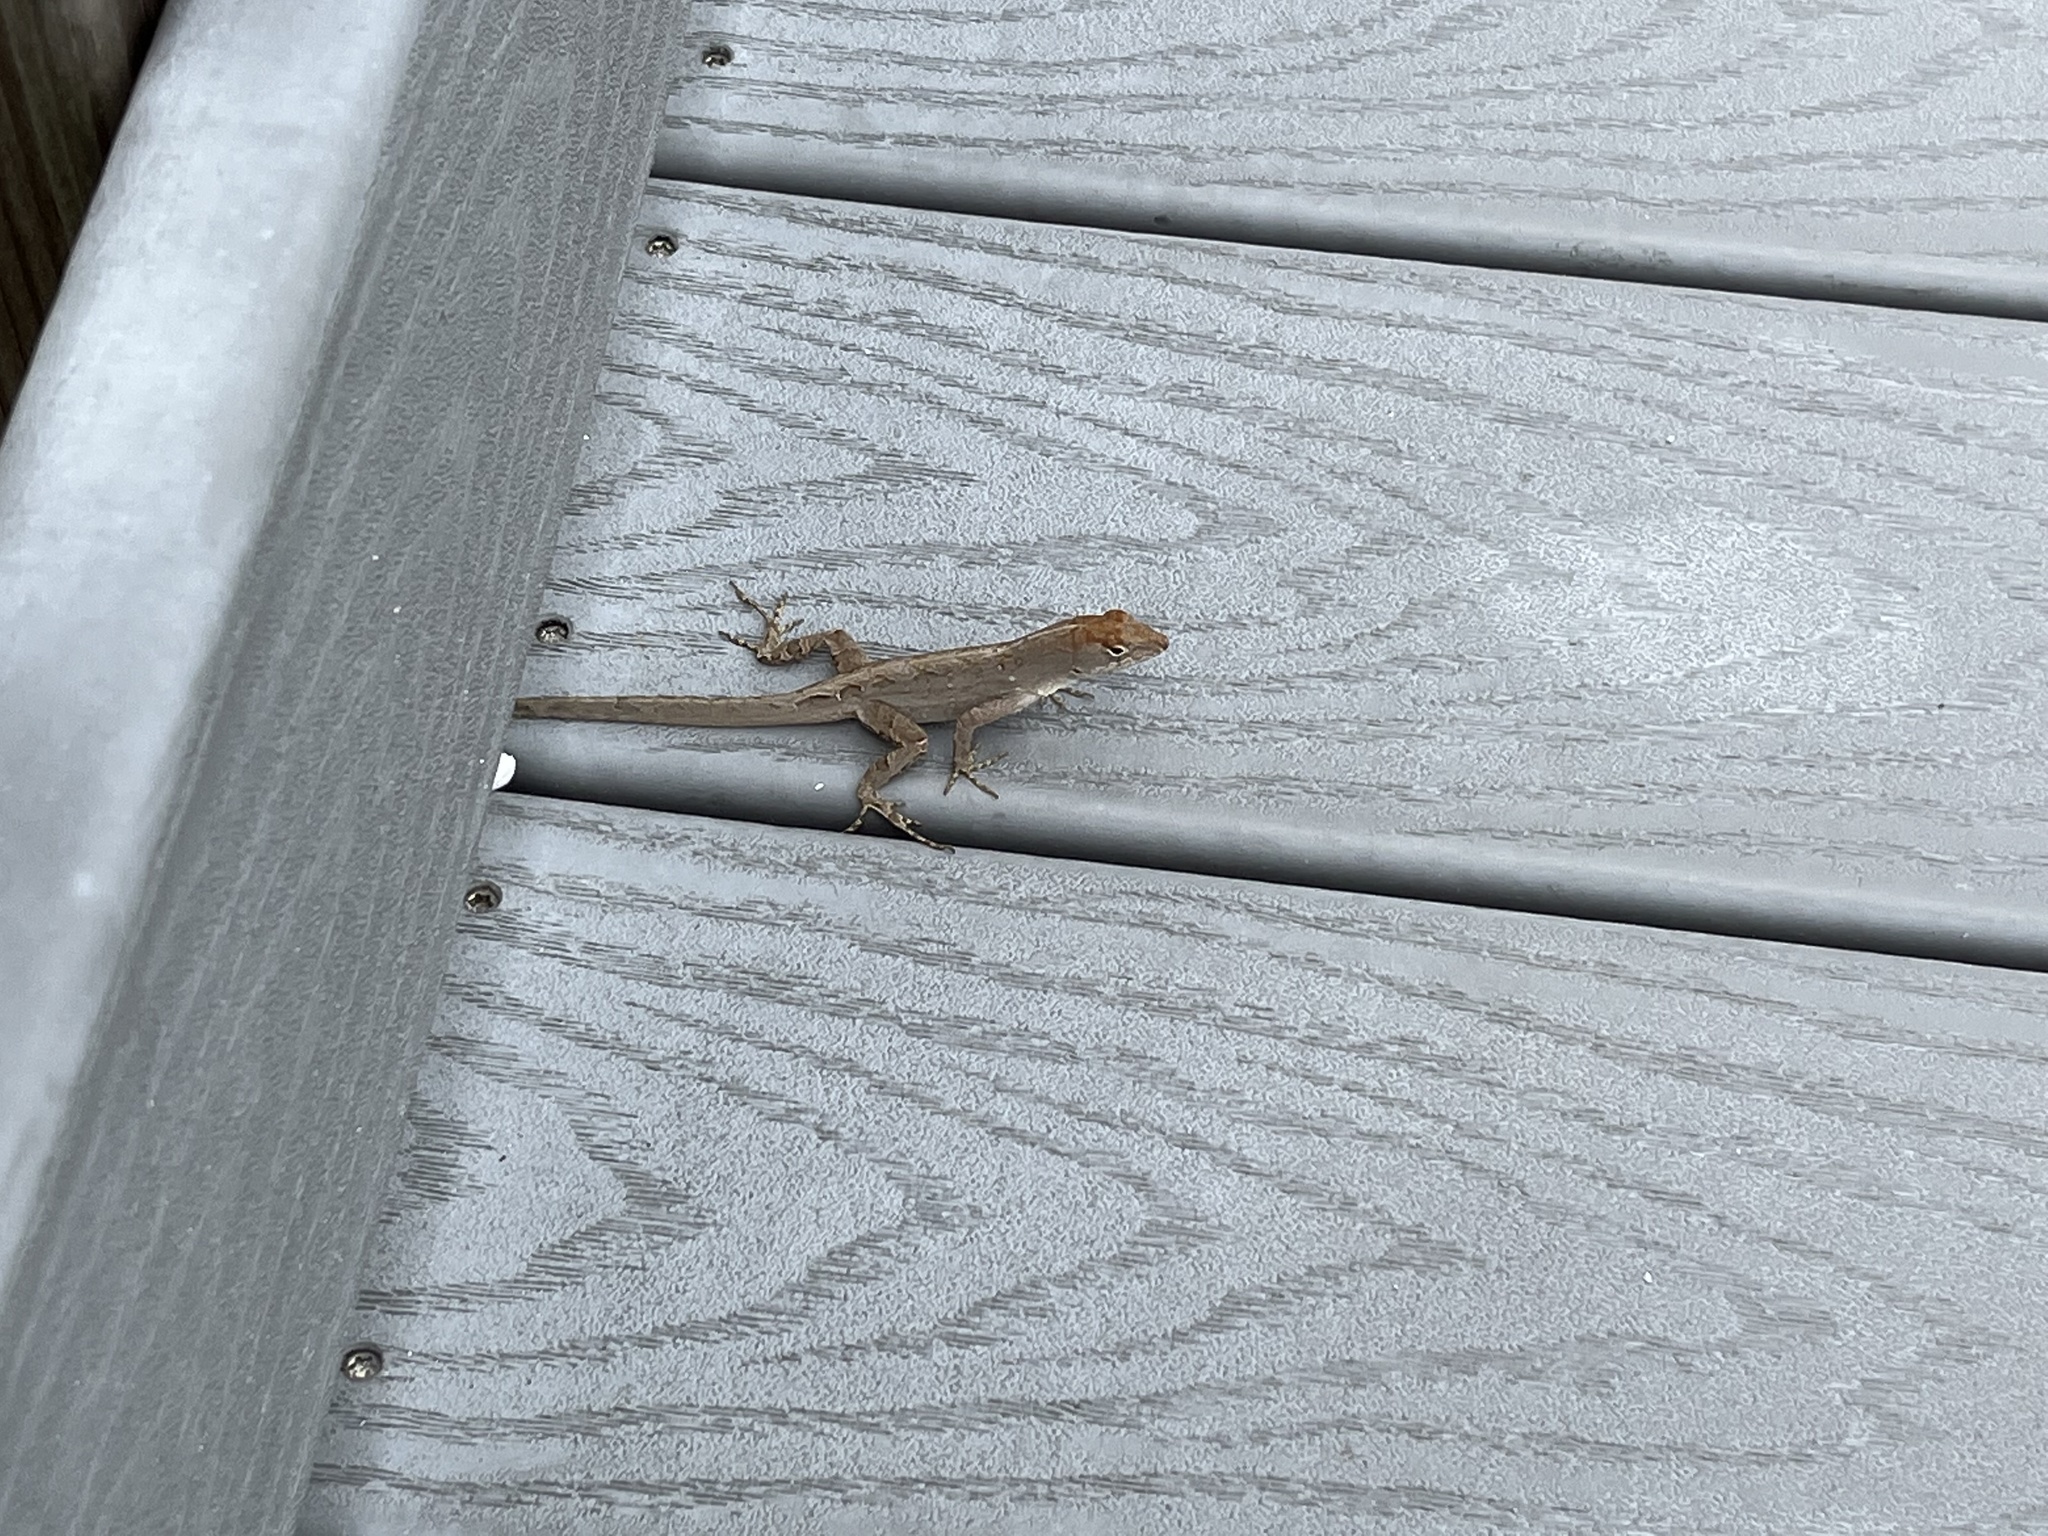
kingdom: Animalia
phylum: Chordata
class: Squamata
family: Dactyloidae
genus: Anolis
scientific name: Anolis sagrei
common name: Brown anole
